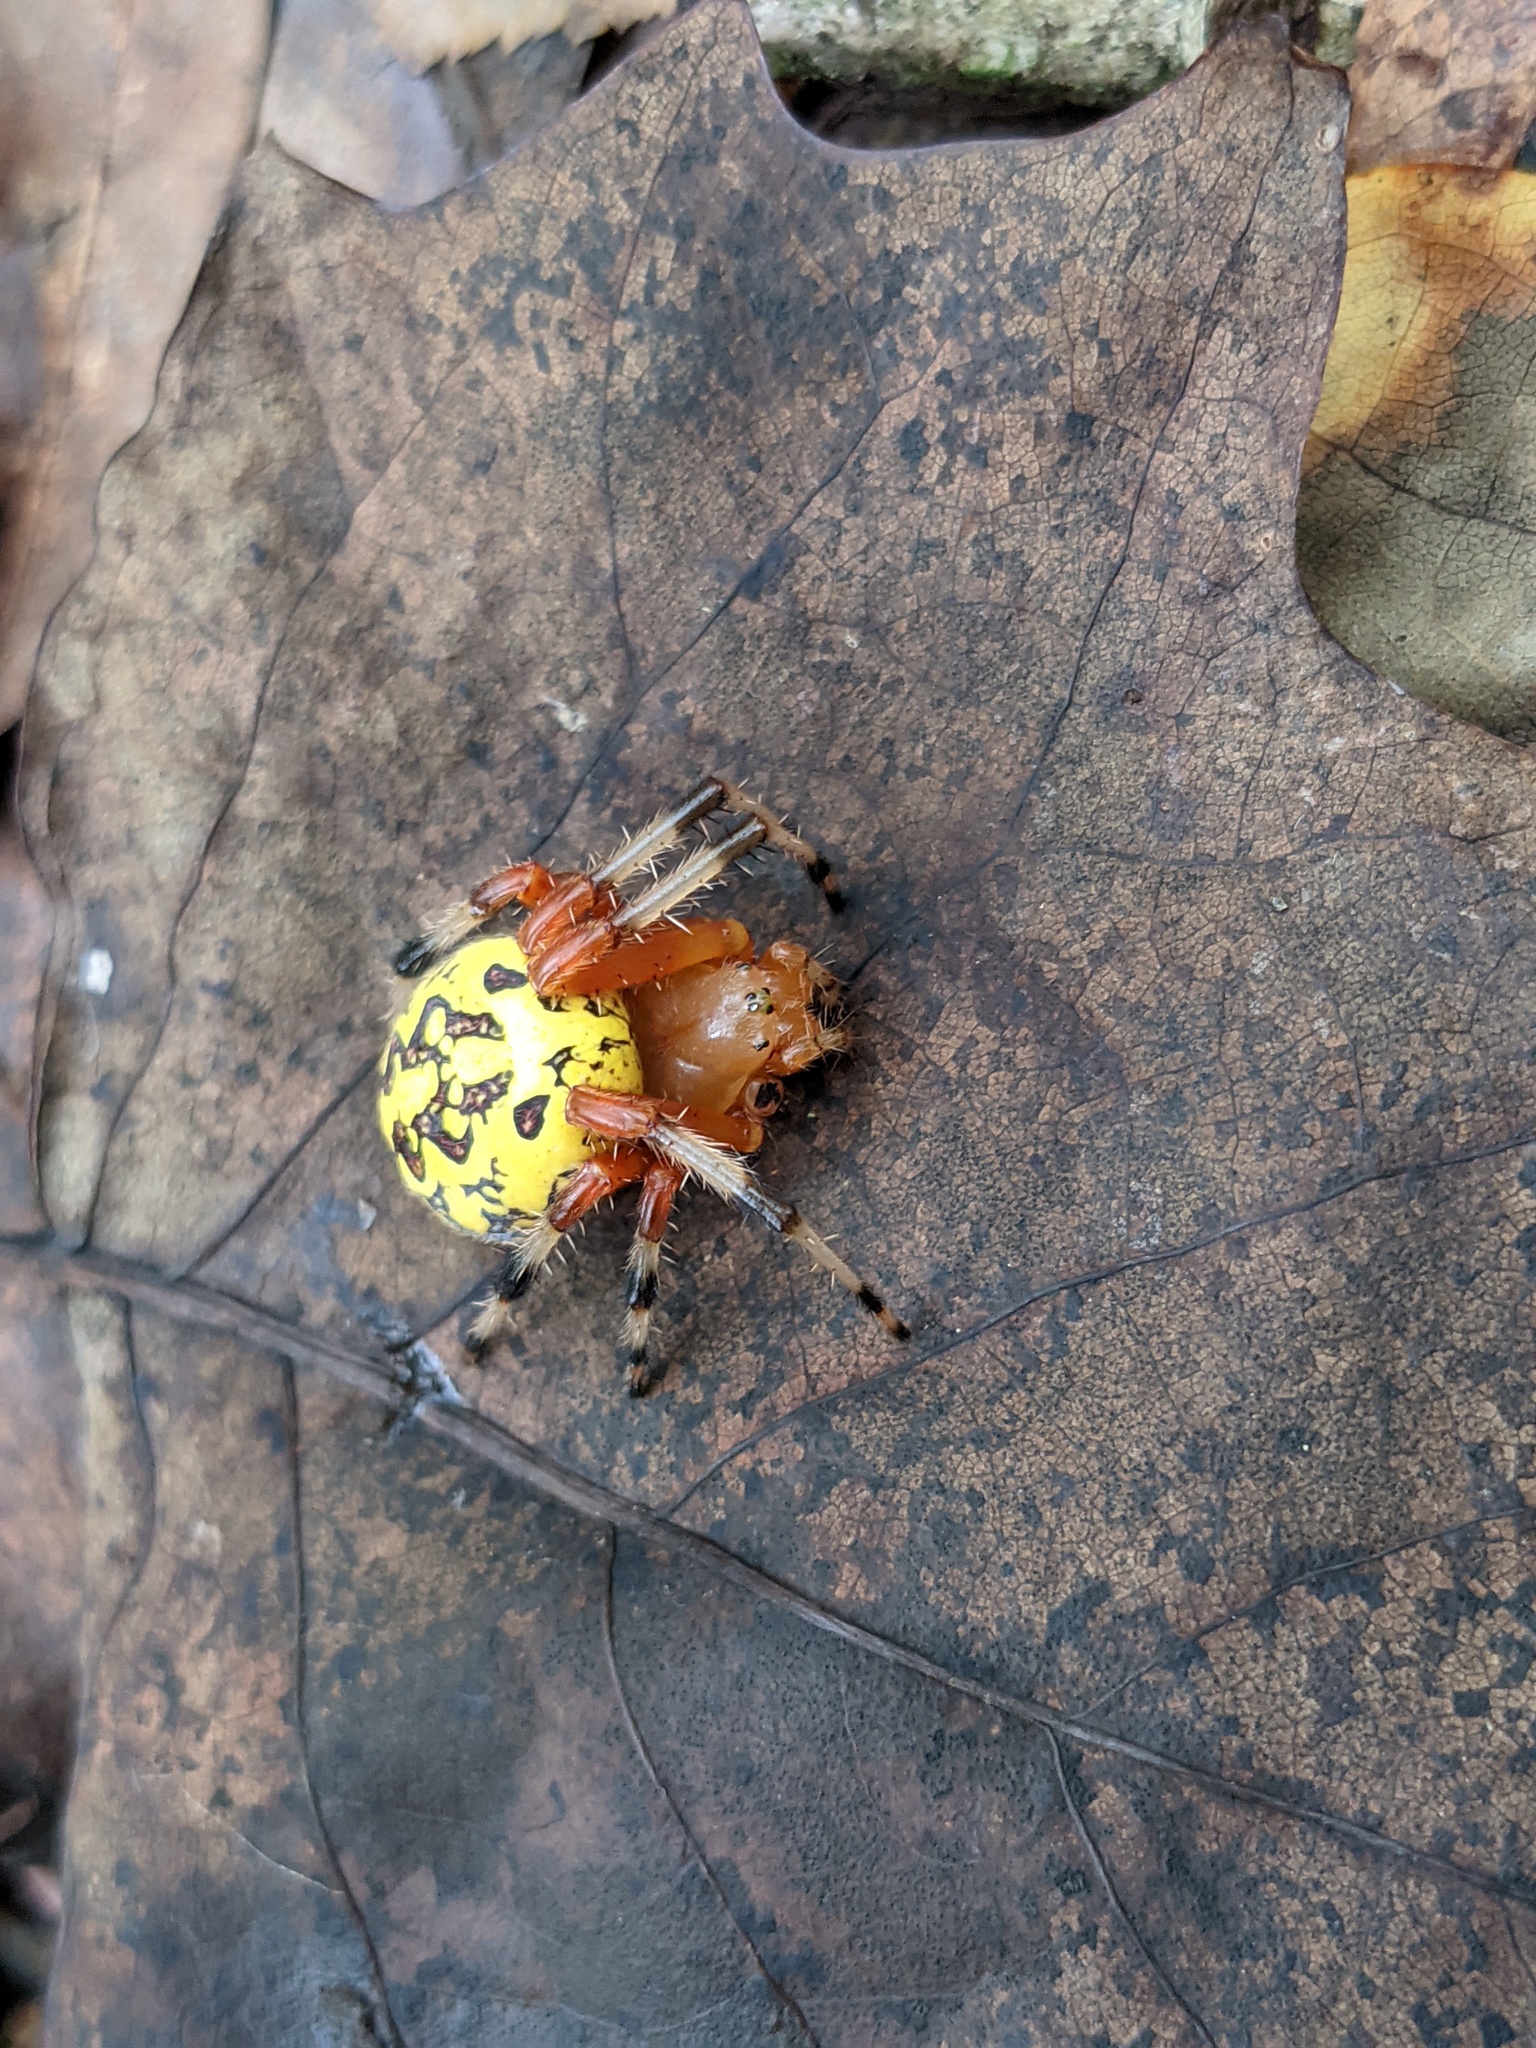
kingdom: Animalia
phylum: Arthropoda
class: Arachnida
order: Araneae
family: Araneidae
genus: Araneus
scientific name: Araneus marmoreus
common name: Marbled orbweaver
